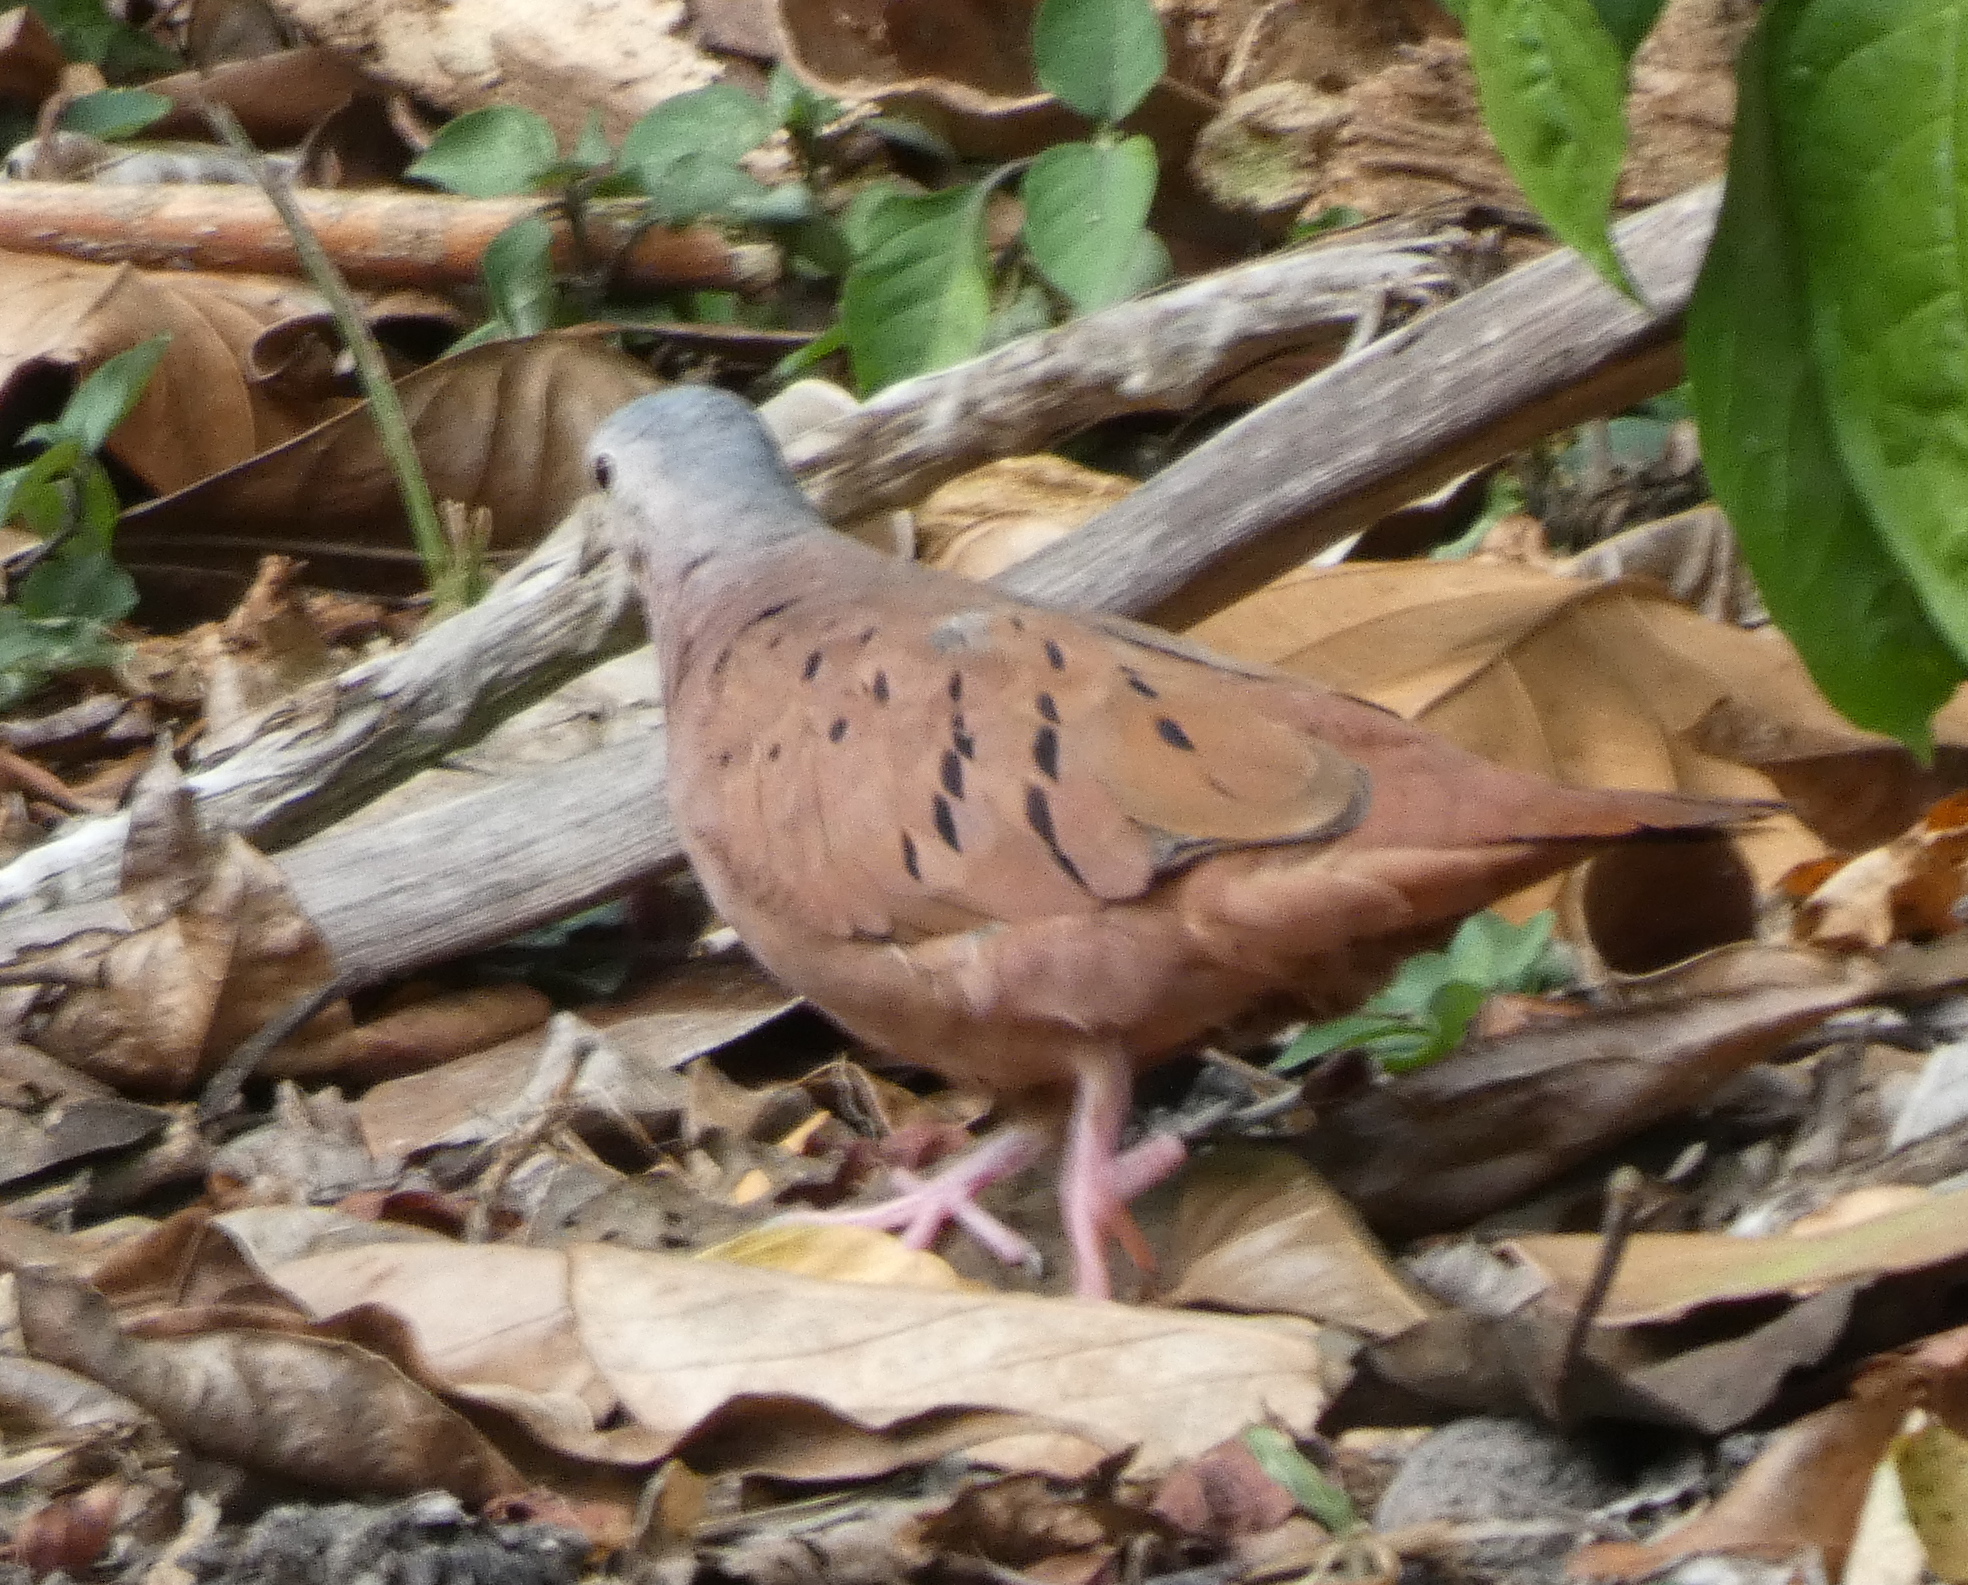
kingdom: Animalia
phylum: Chordata
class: Aves
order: Columbiformes
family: Columbidae
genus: Columbina
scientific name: Columbina talpacoti
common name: Ruddy ground dove
